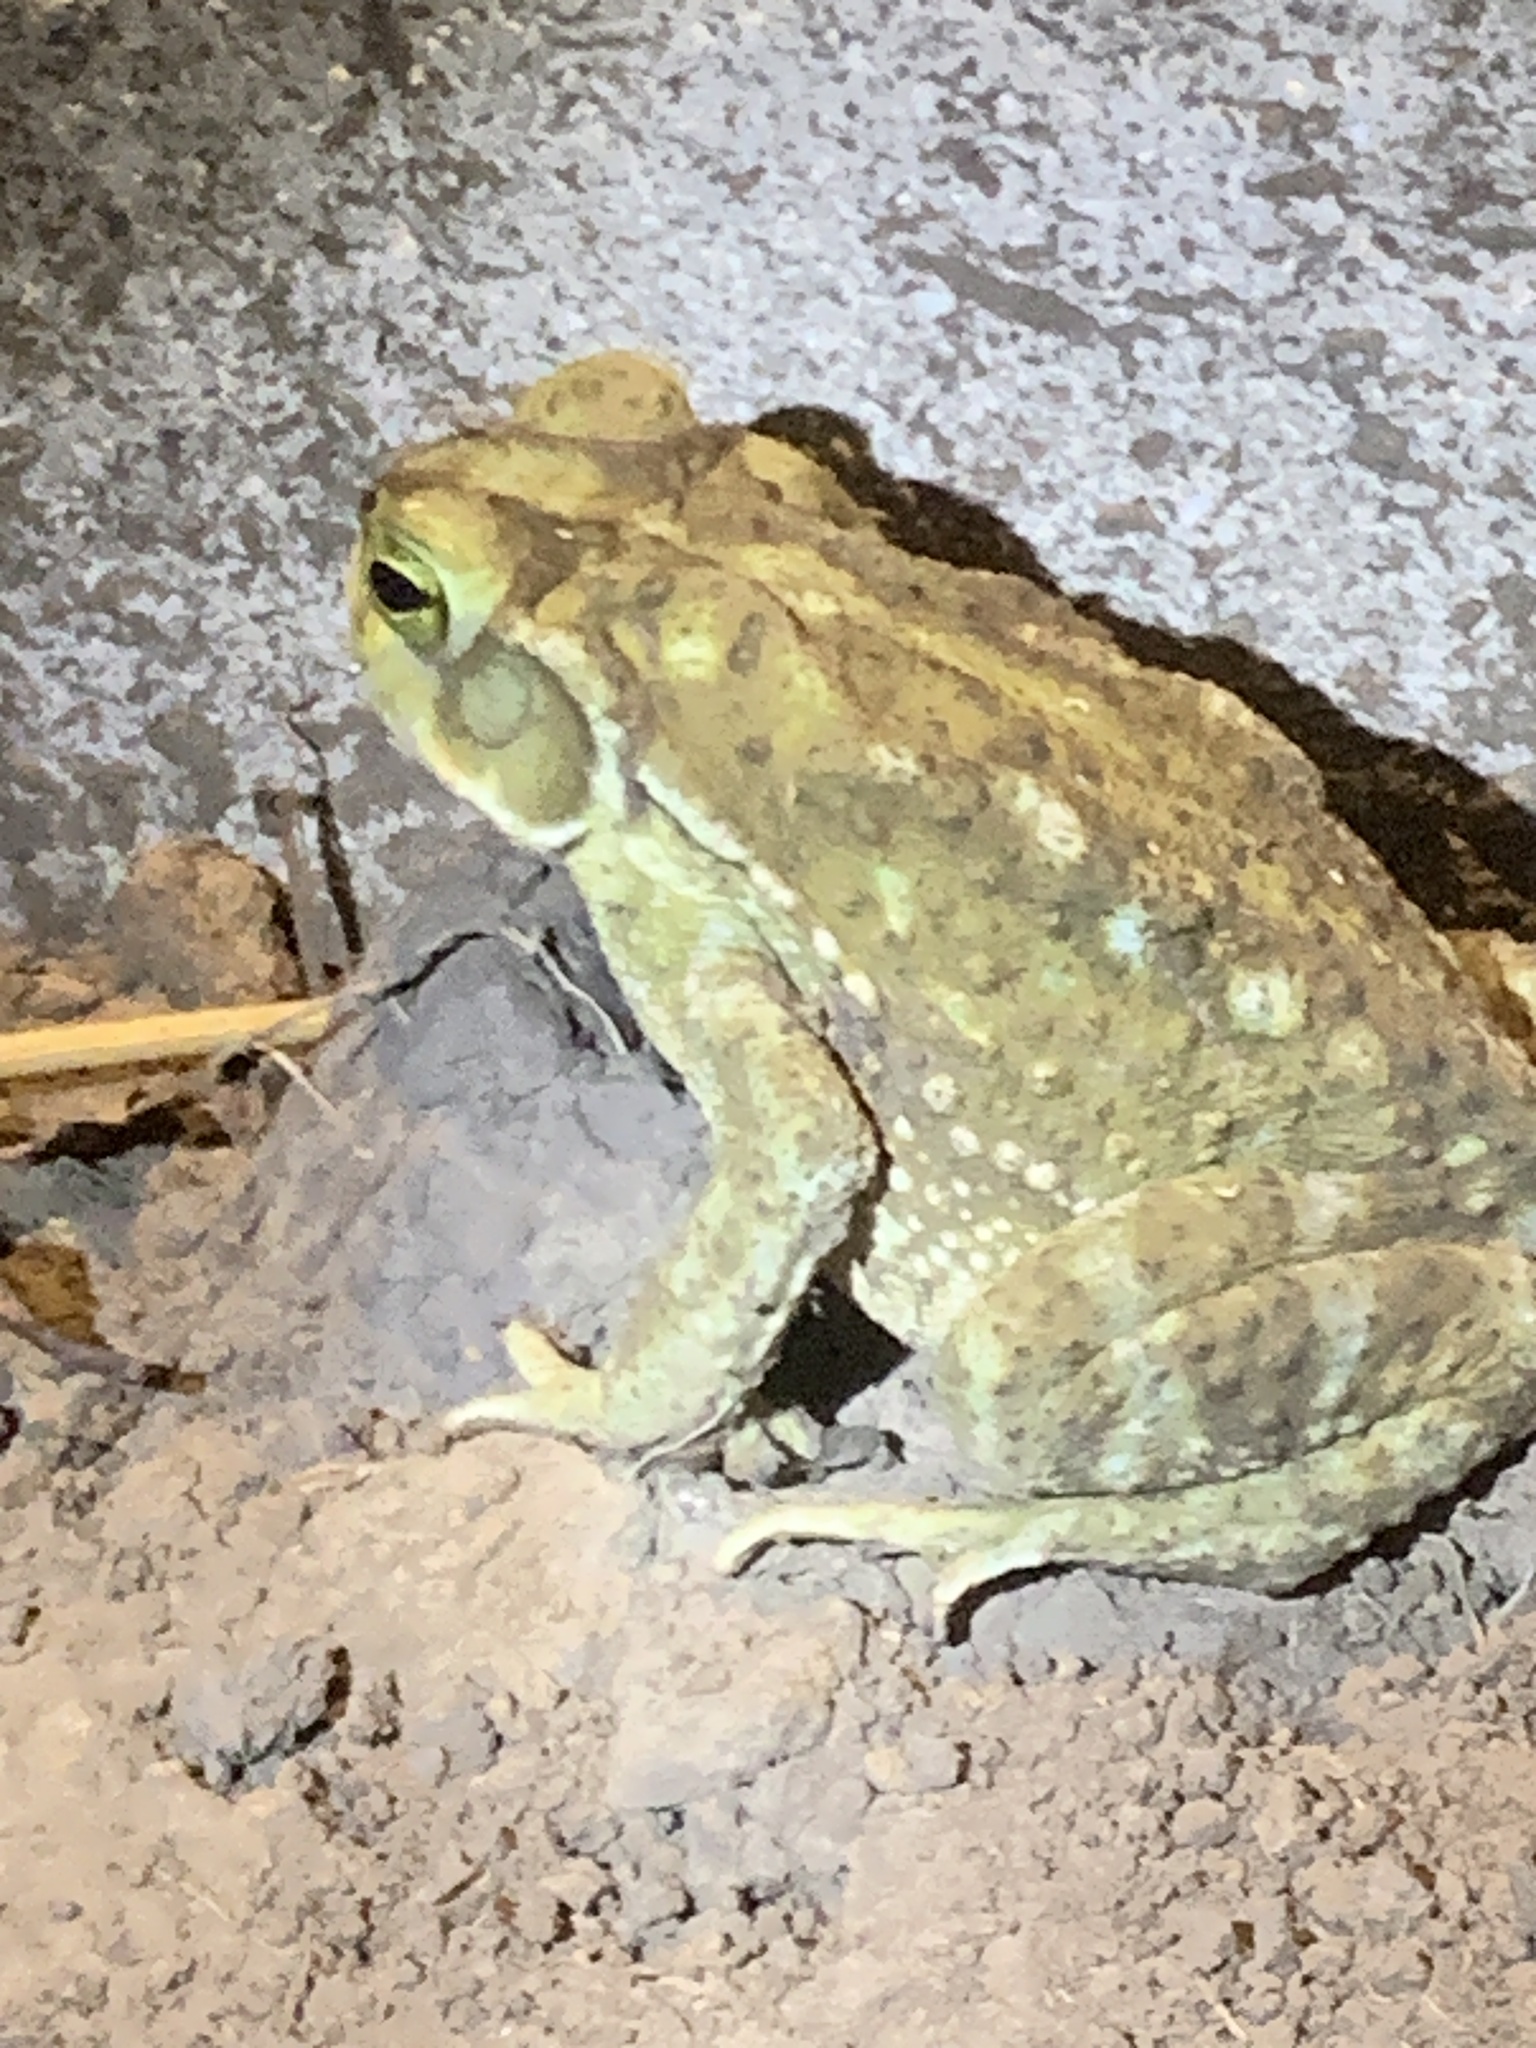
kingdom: Animalia
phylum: Chordata
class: Amphibia
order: Anura
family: Bufonidae
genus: Rhinella
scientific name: Rhinella arenarum
